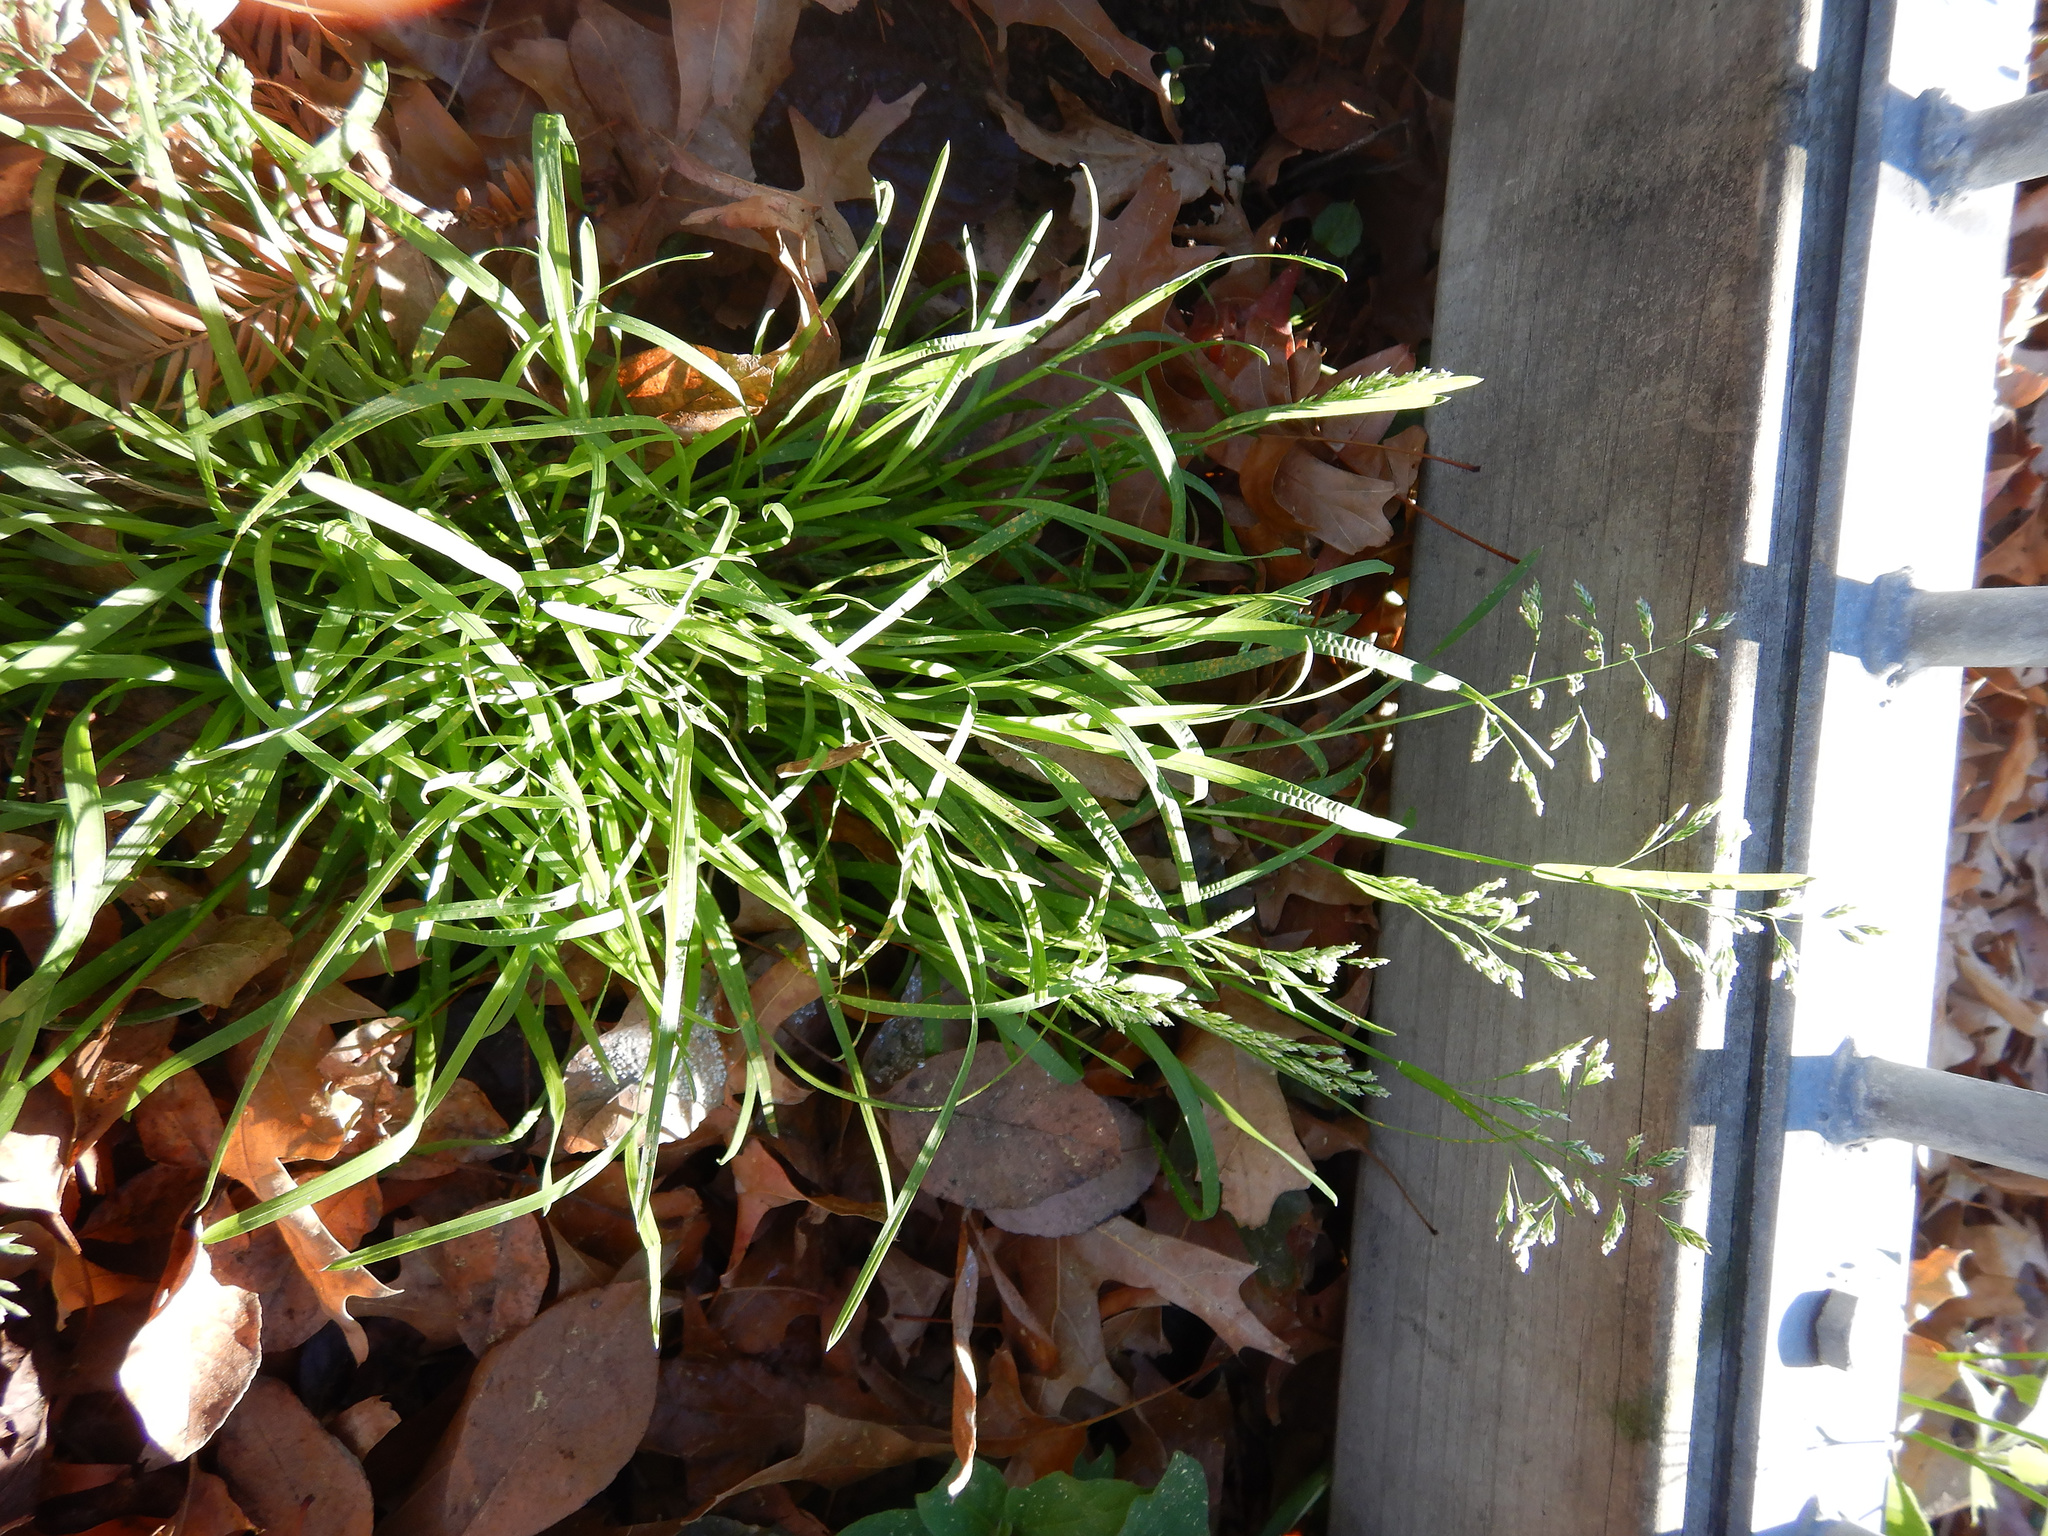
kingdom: Plantae
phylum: Tracheophyta
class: Liliopsida
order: Poales
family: Poaceae
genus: Poa
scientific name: Poa annua
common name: Annual bluegrass
